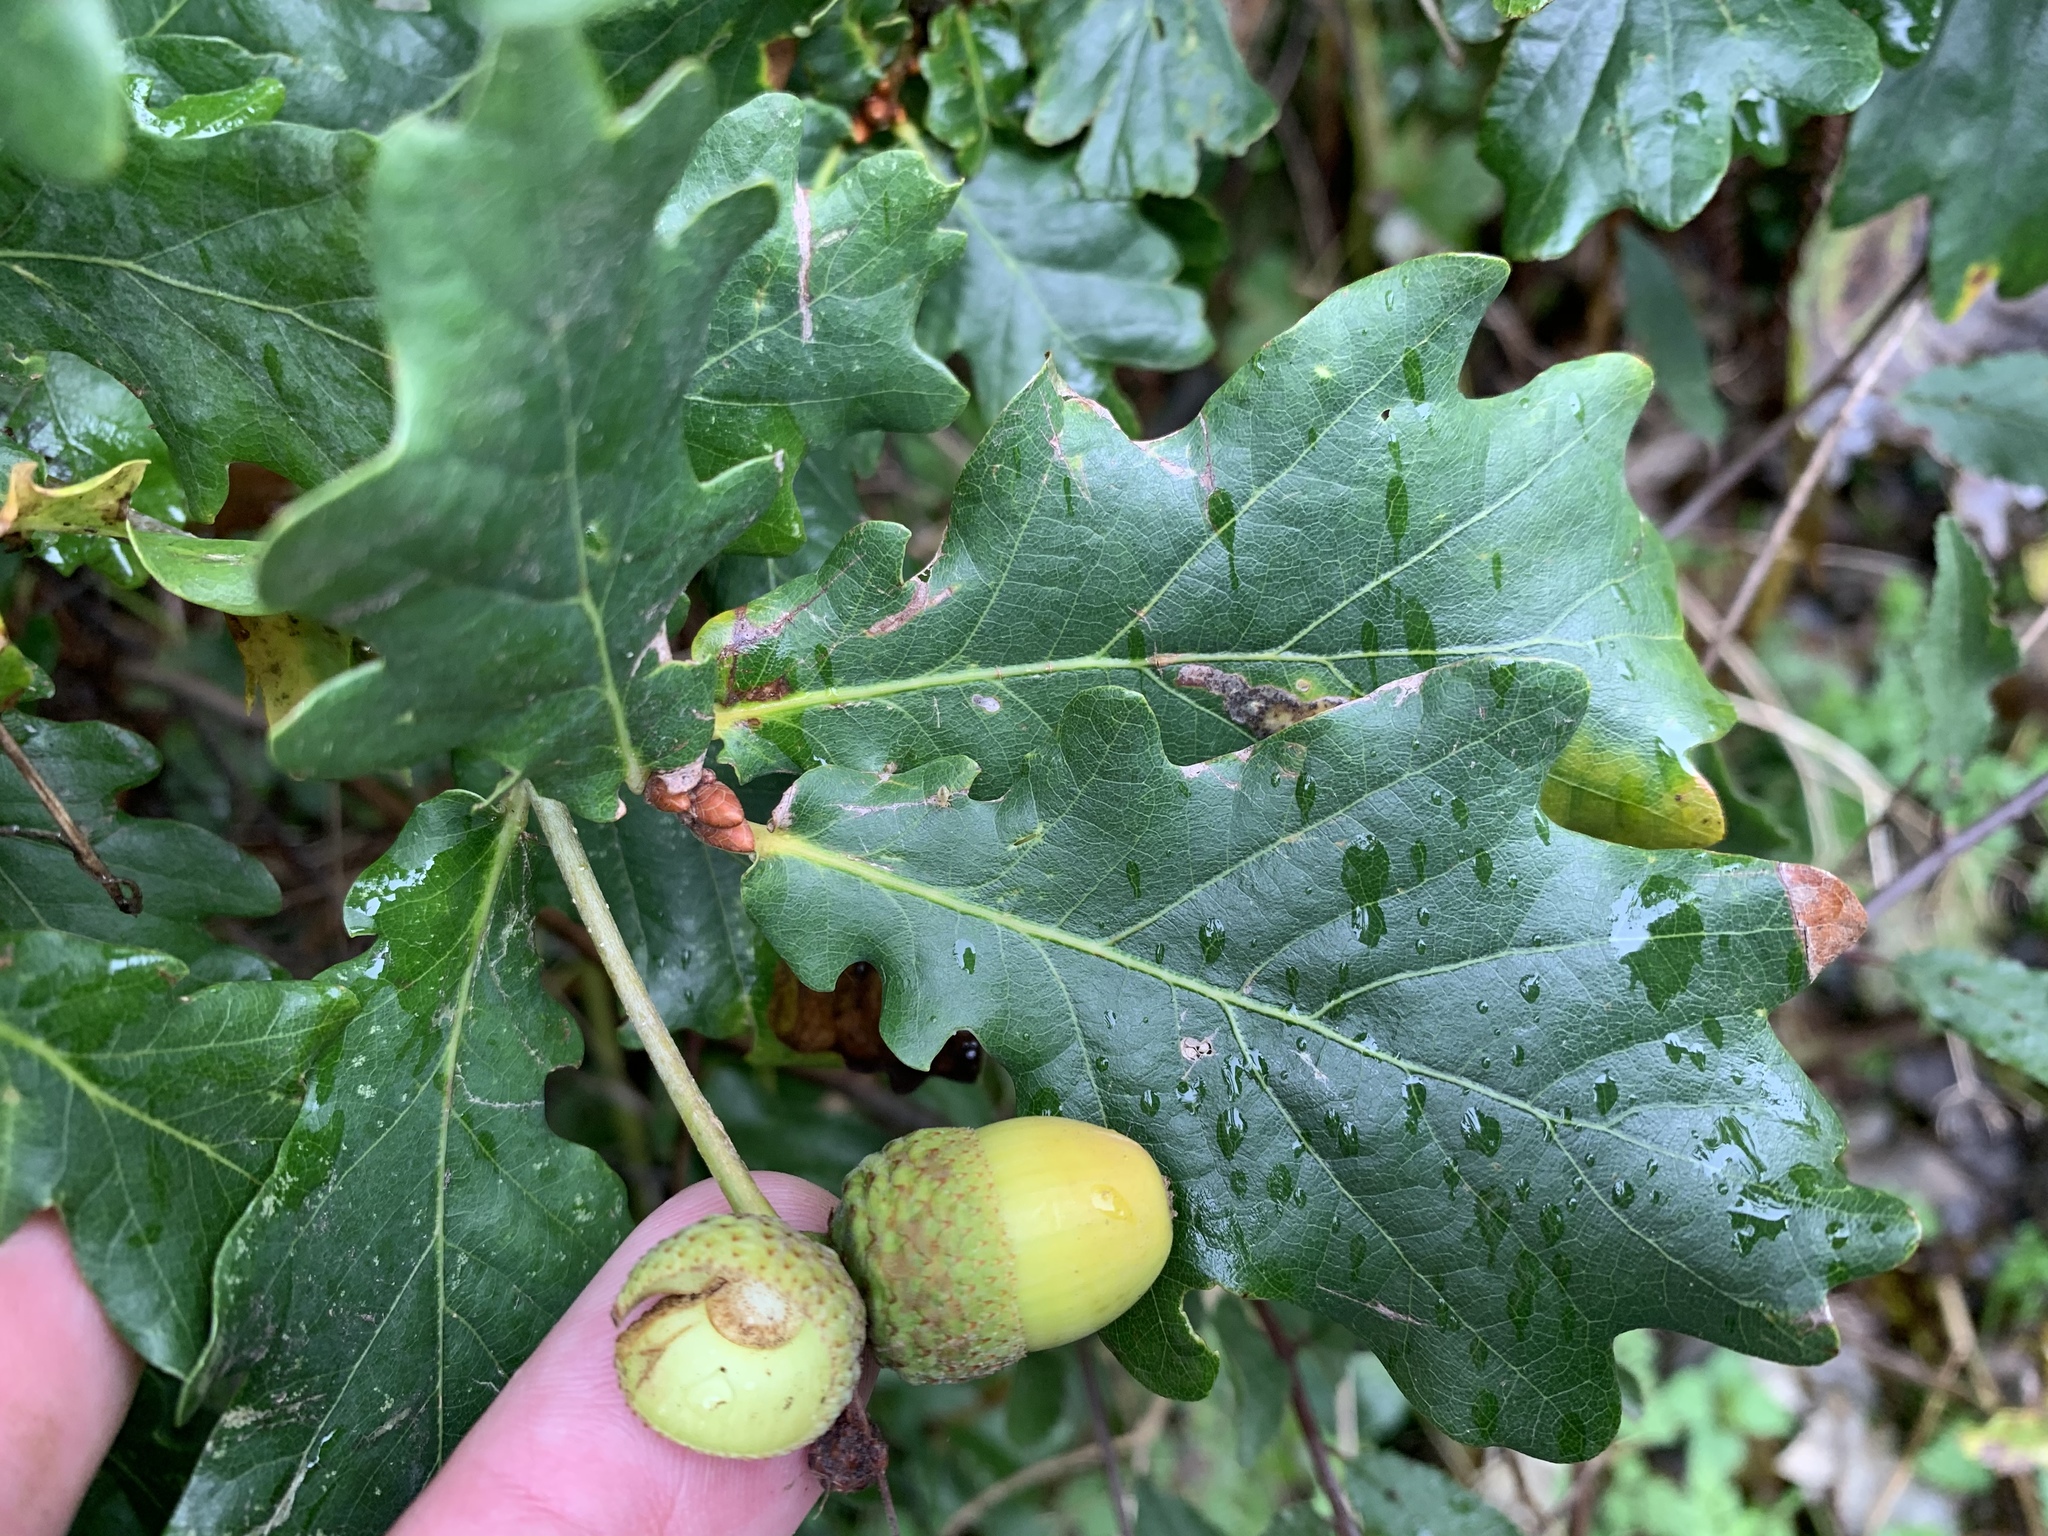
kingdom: Plantae
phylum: Tracheophyta
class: Magnoliopsida
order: Fagales
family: Fagaceae
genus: Quercus
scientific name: Quercus robur
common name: Pedunculate oak
